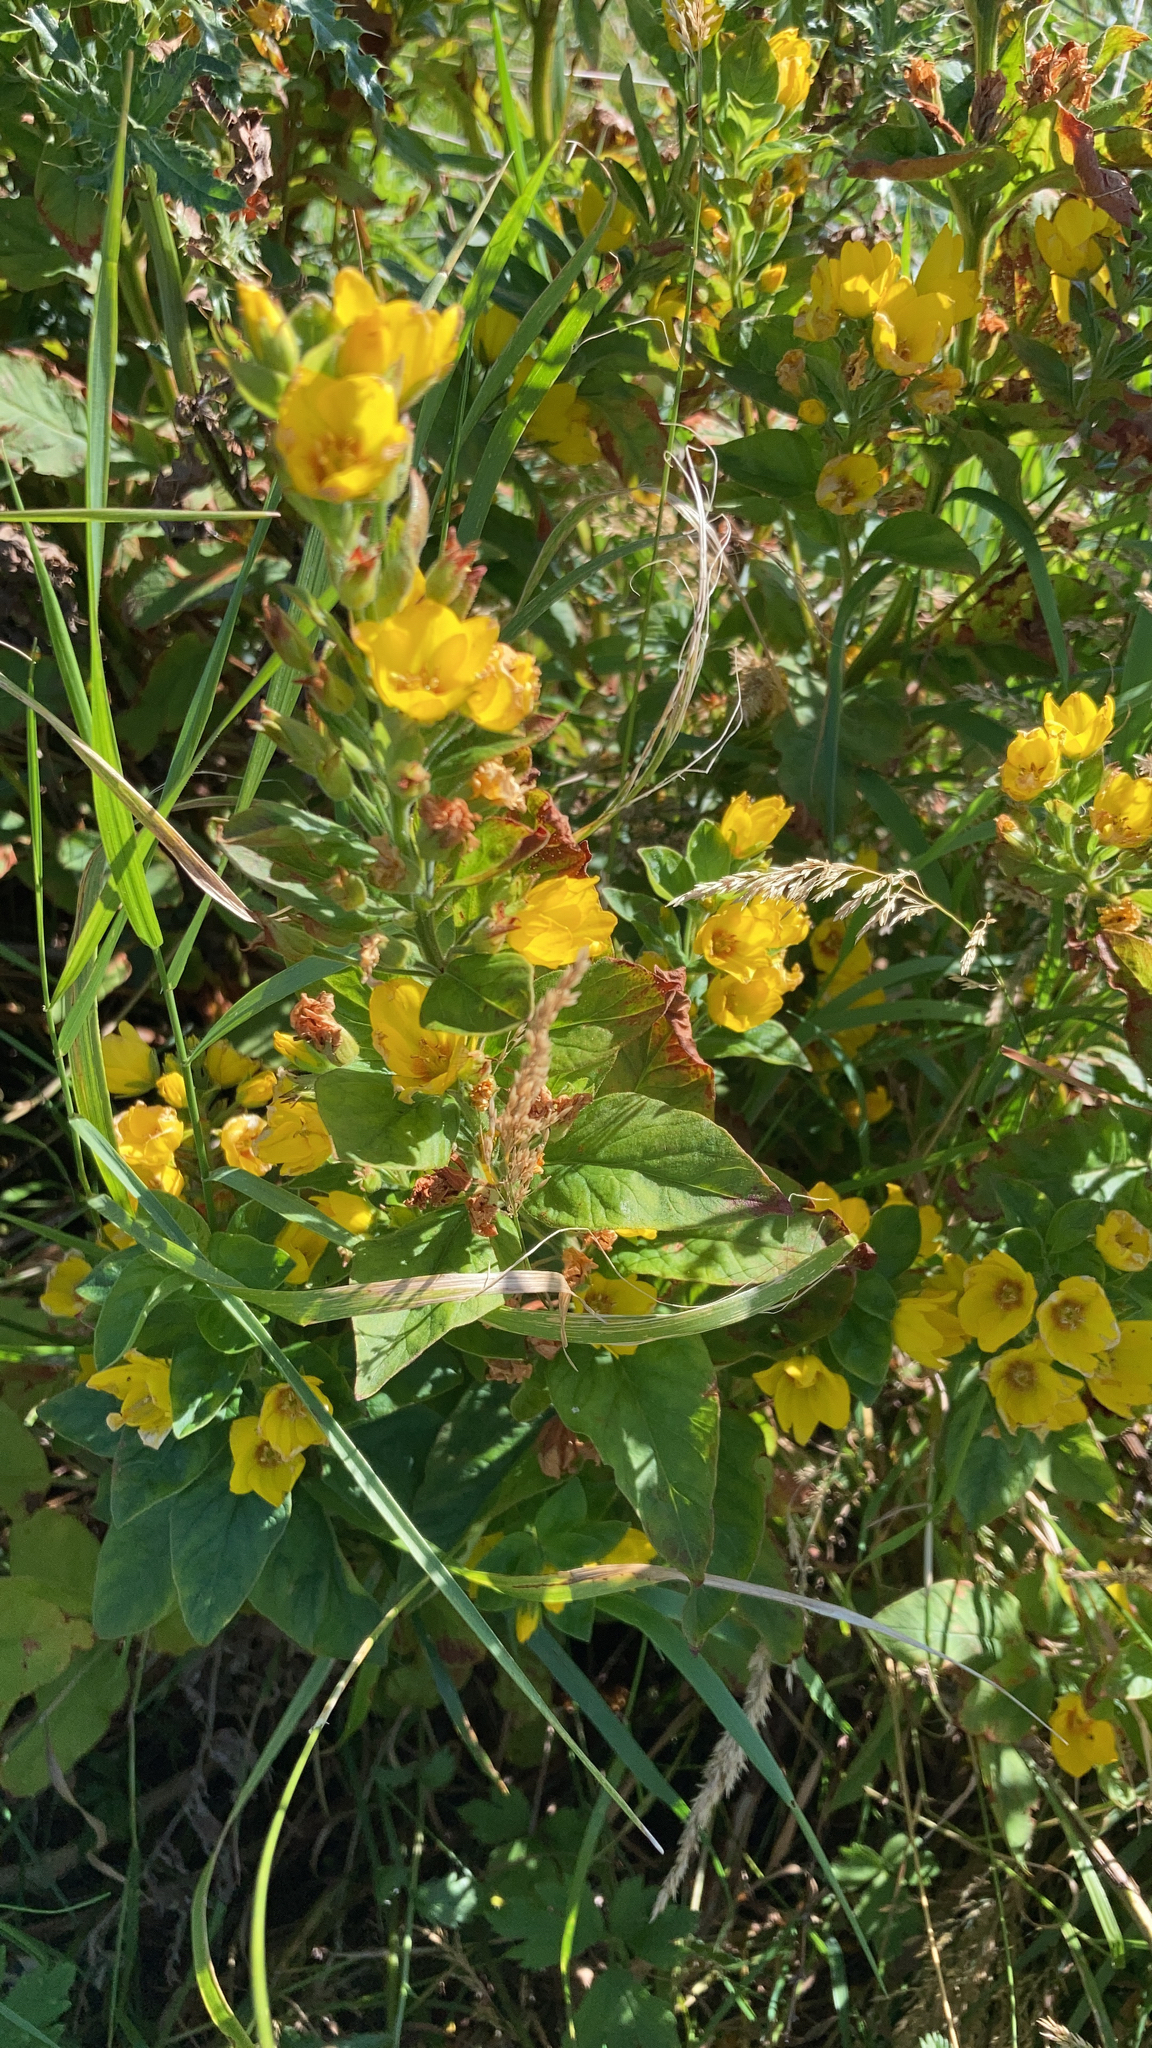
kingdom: Plantae
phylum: Tracheophyta
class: Magnoliopsida
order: Ericales
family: Primulaceae
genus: Lysimachia
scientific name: Lysimachia punctata
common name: Dotted loosestrife
